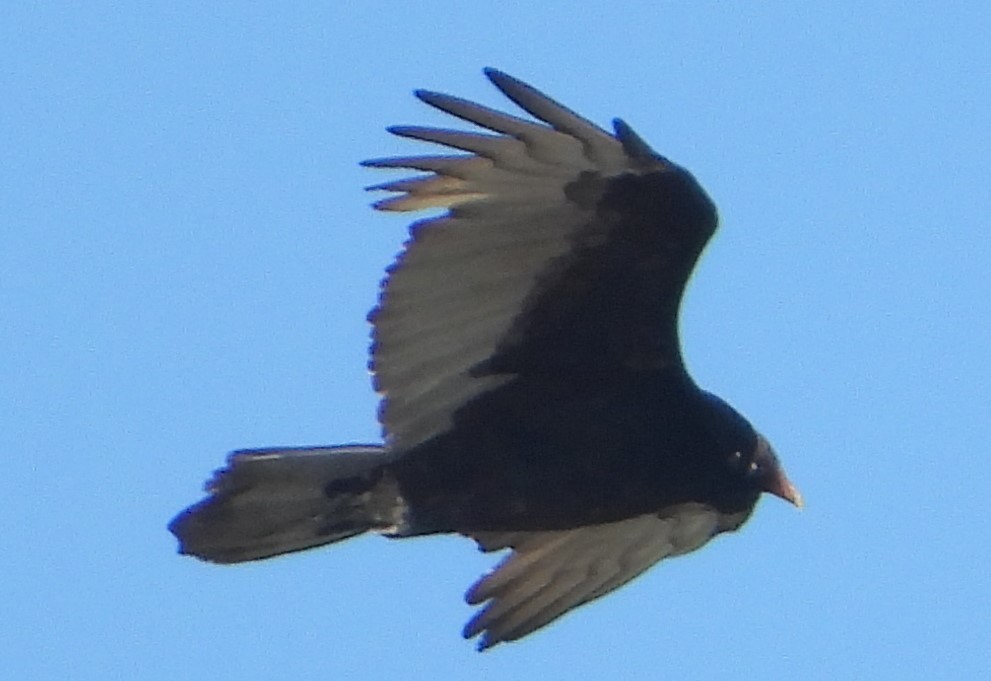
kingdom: Animalia
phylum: Chordata
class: Aves
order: Accipitriformes
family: Cathartidae
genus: Cathartes
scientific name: Cathartes aura
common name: Turkey vulture
